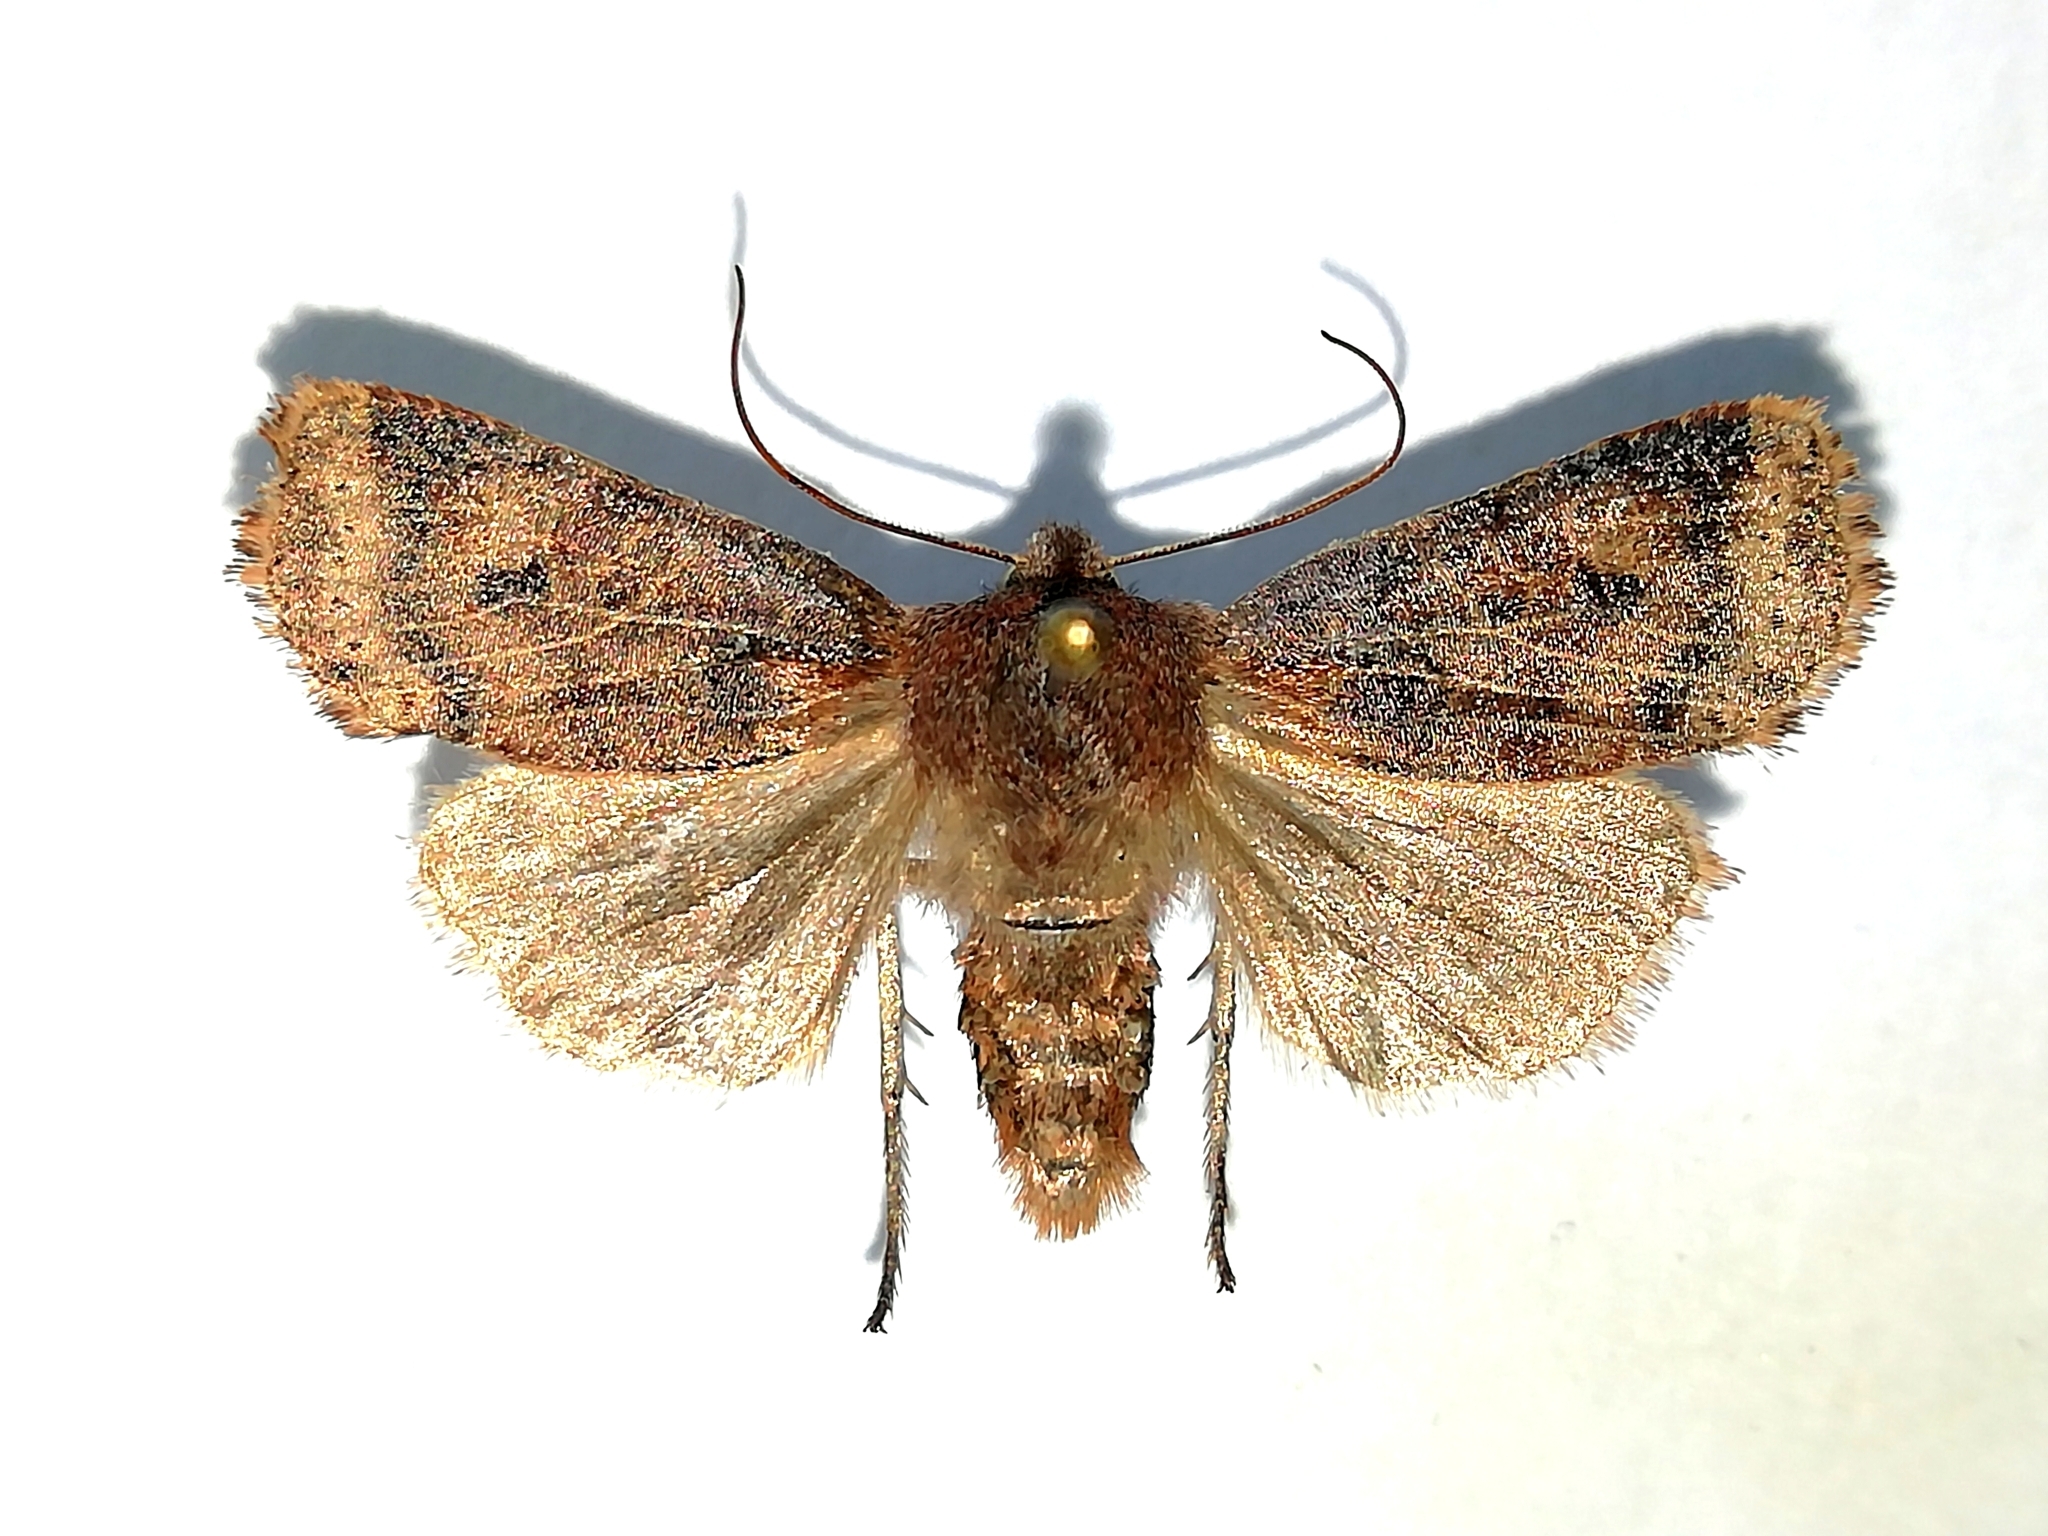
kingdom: Animalia
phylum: Arthropoda
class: Insecta
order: Lepidoptera
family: Noctuidae
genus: Conistra
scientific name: Conistra vaccinii
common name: Chestnut
